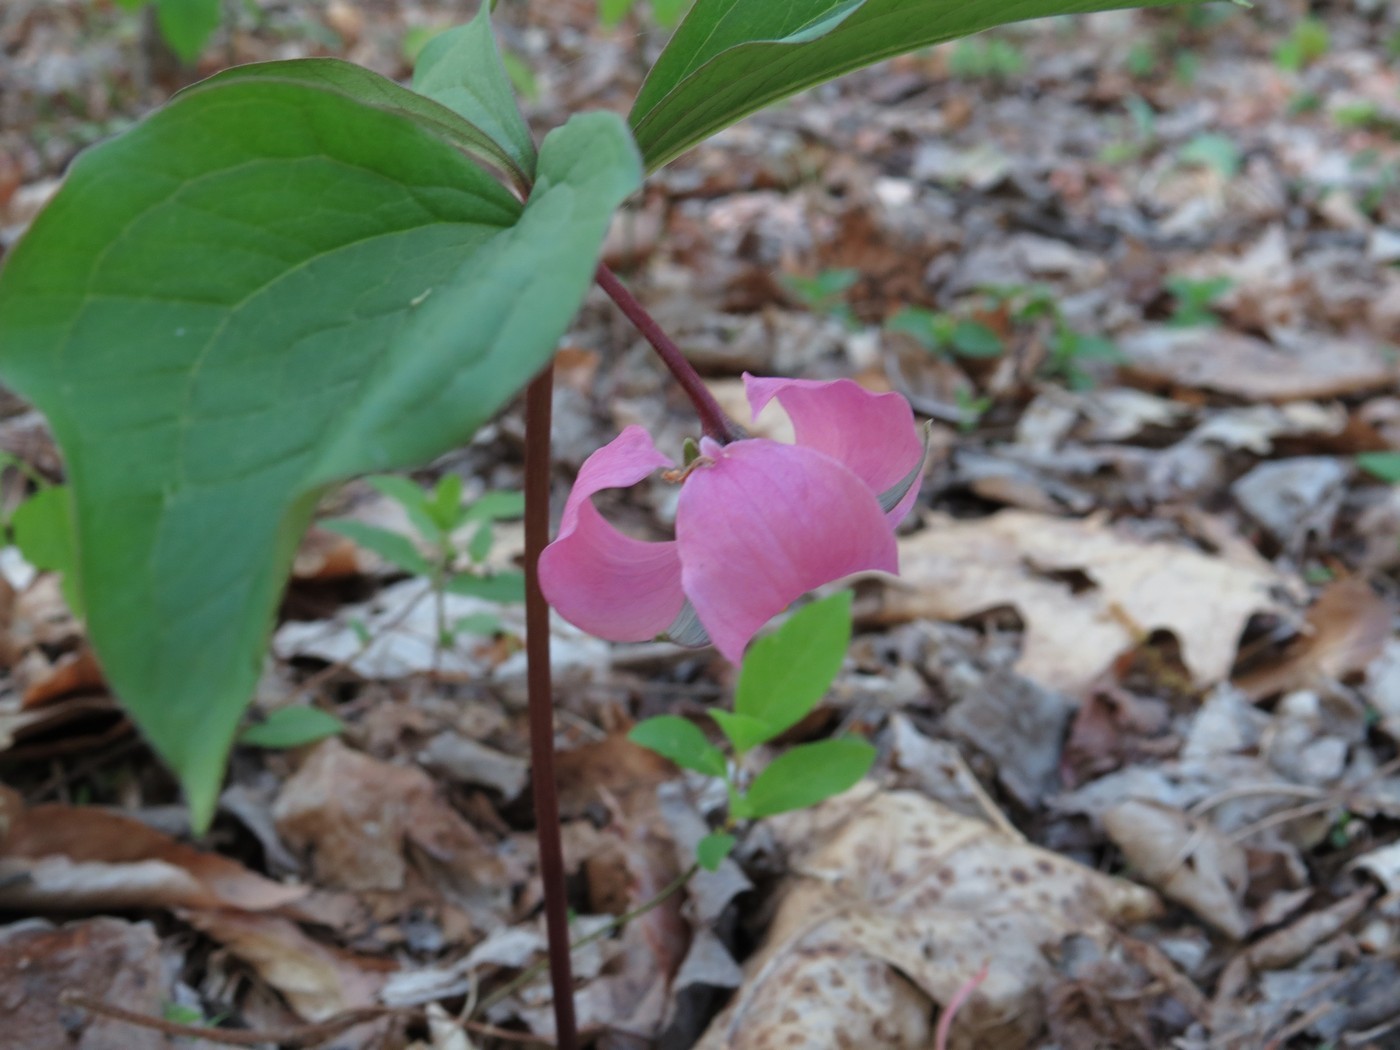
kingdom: Plantae
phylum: Tracheophyta
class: Liliopsida
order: Liliales
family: Melanthiaceae
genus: Trillium
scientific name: Trillium catesbaei
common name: Bashful trillium
